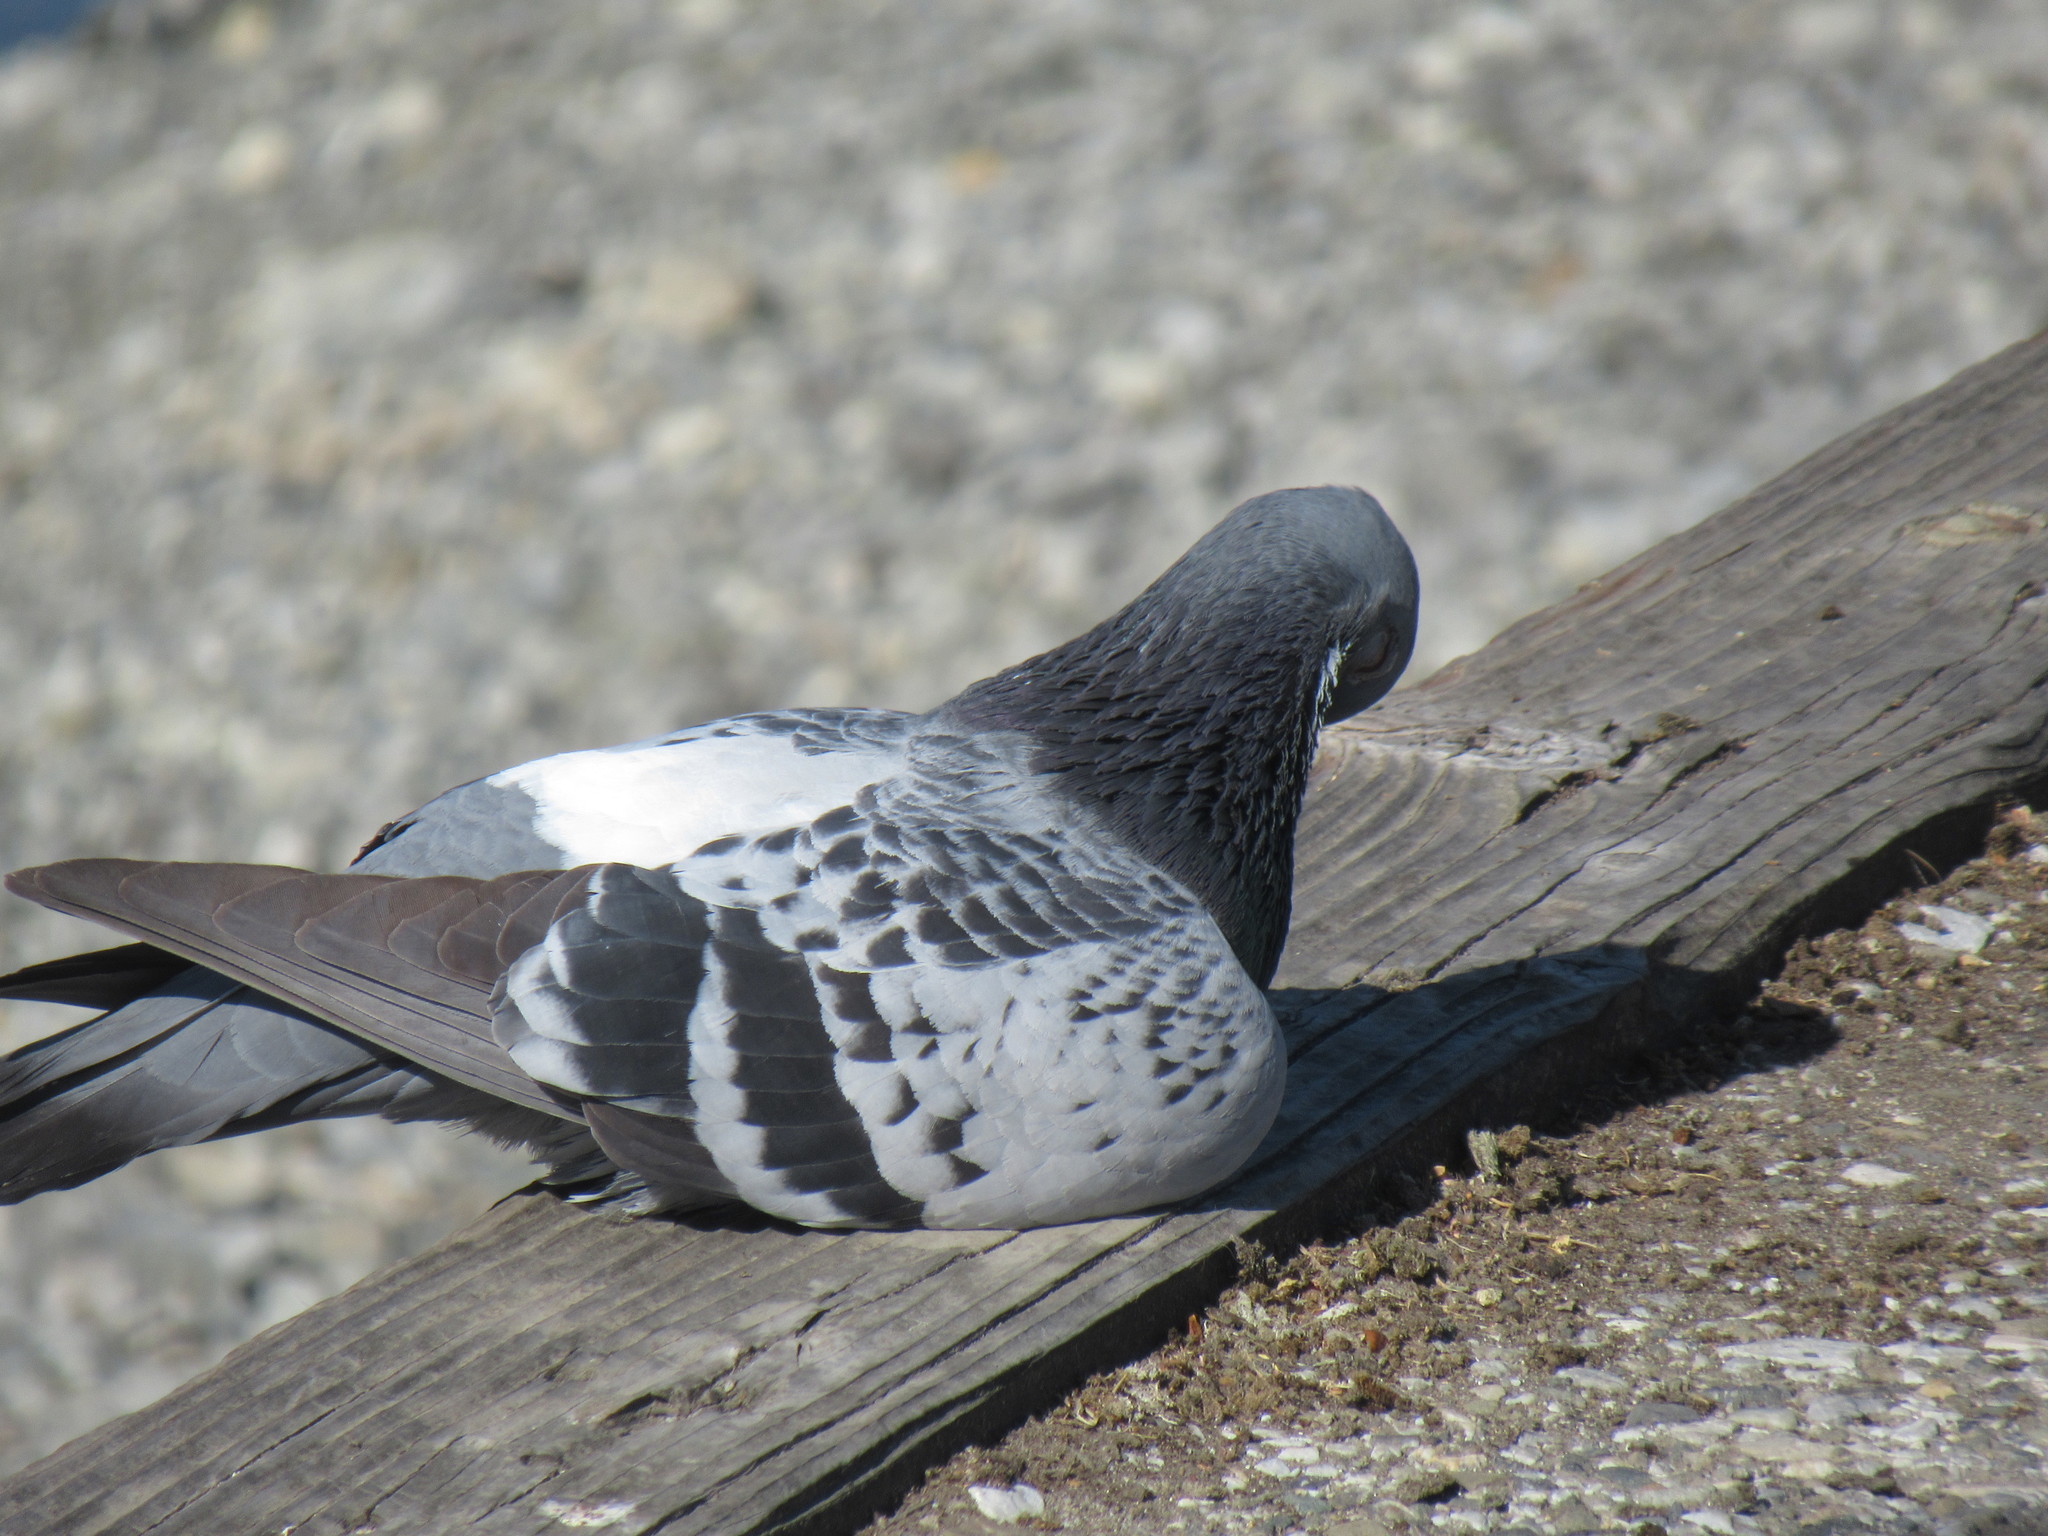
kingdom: Animalia
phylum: Chordata
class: Aves
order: Columbiformes
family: Columbidae
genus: Columba
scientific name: Columba livia
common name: Rock pigeon
